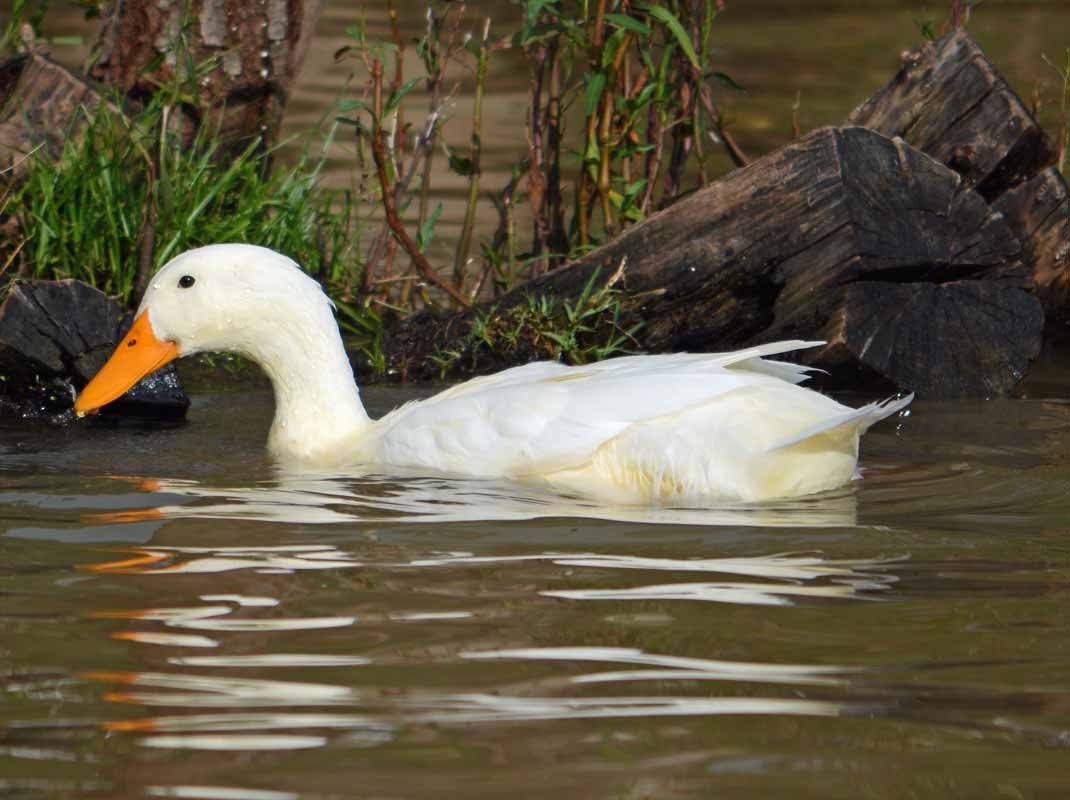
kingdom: Animalia
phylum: Chordata
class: Aves
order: Anseriformes
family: Anatidae
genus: Anas
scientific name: Anas platyrhynchos
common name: Mallard
